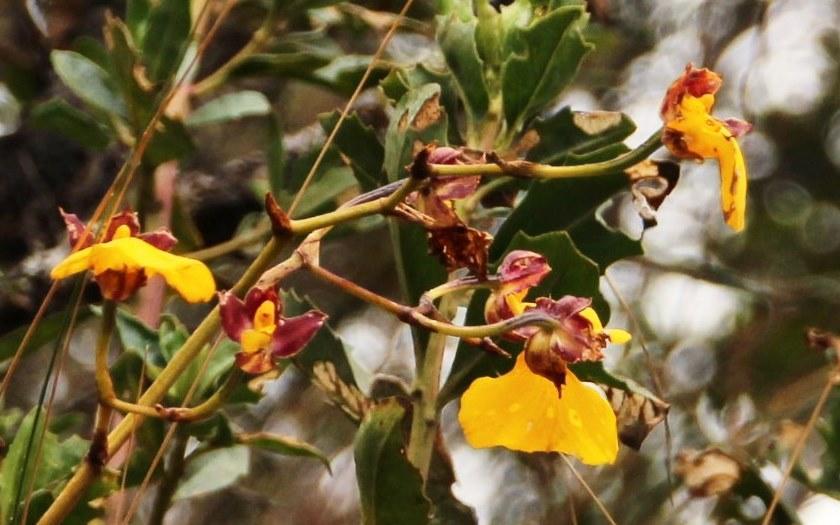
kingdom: Plantae
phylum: Tracheophyta
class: Liliopsida
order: Asparagales
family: Orchidaceae
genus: Cyrtochilum
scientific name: Cyrtochilum aureum
